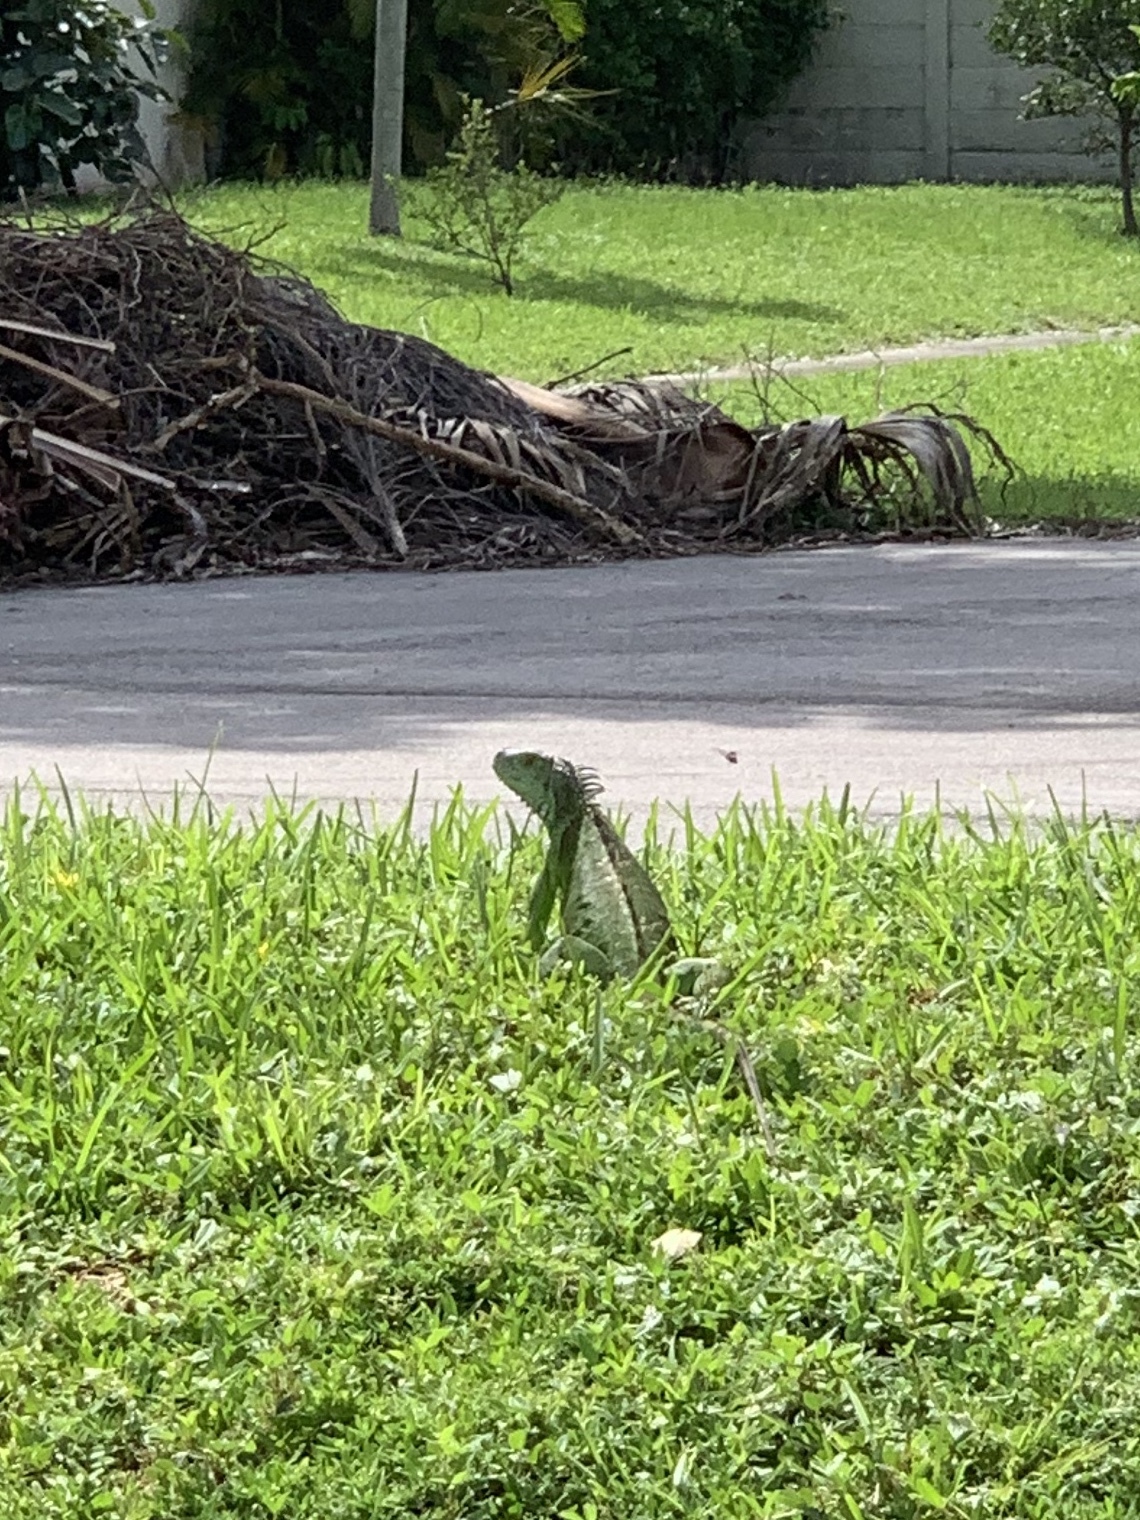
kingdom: Animalia
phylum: Chordata
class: Squamata
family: Iguanidae
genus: Iguana
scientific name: Iguana iguana
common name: Green iguana
